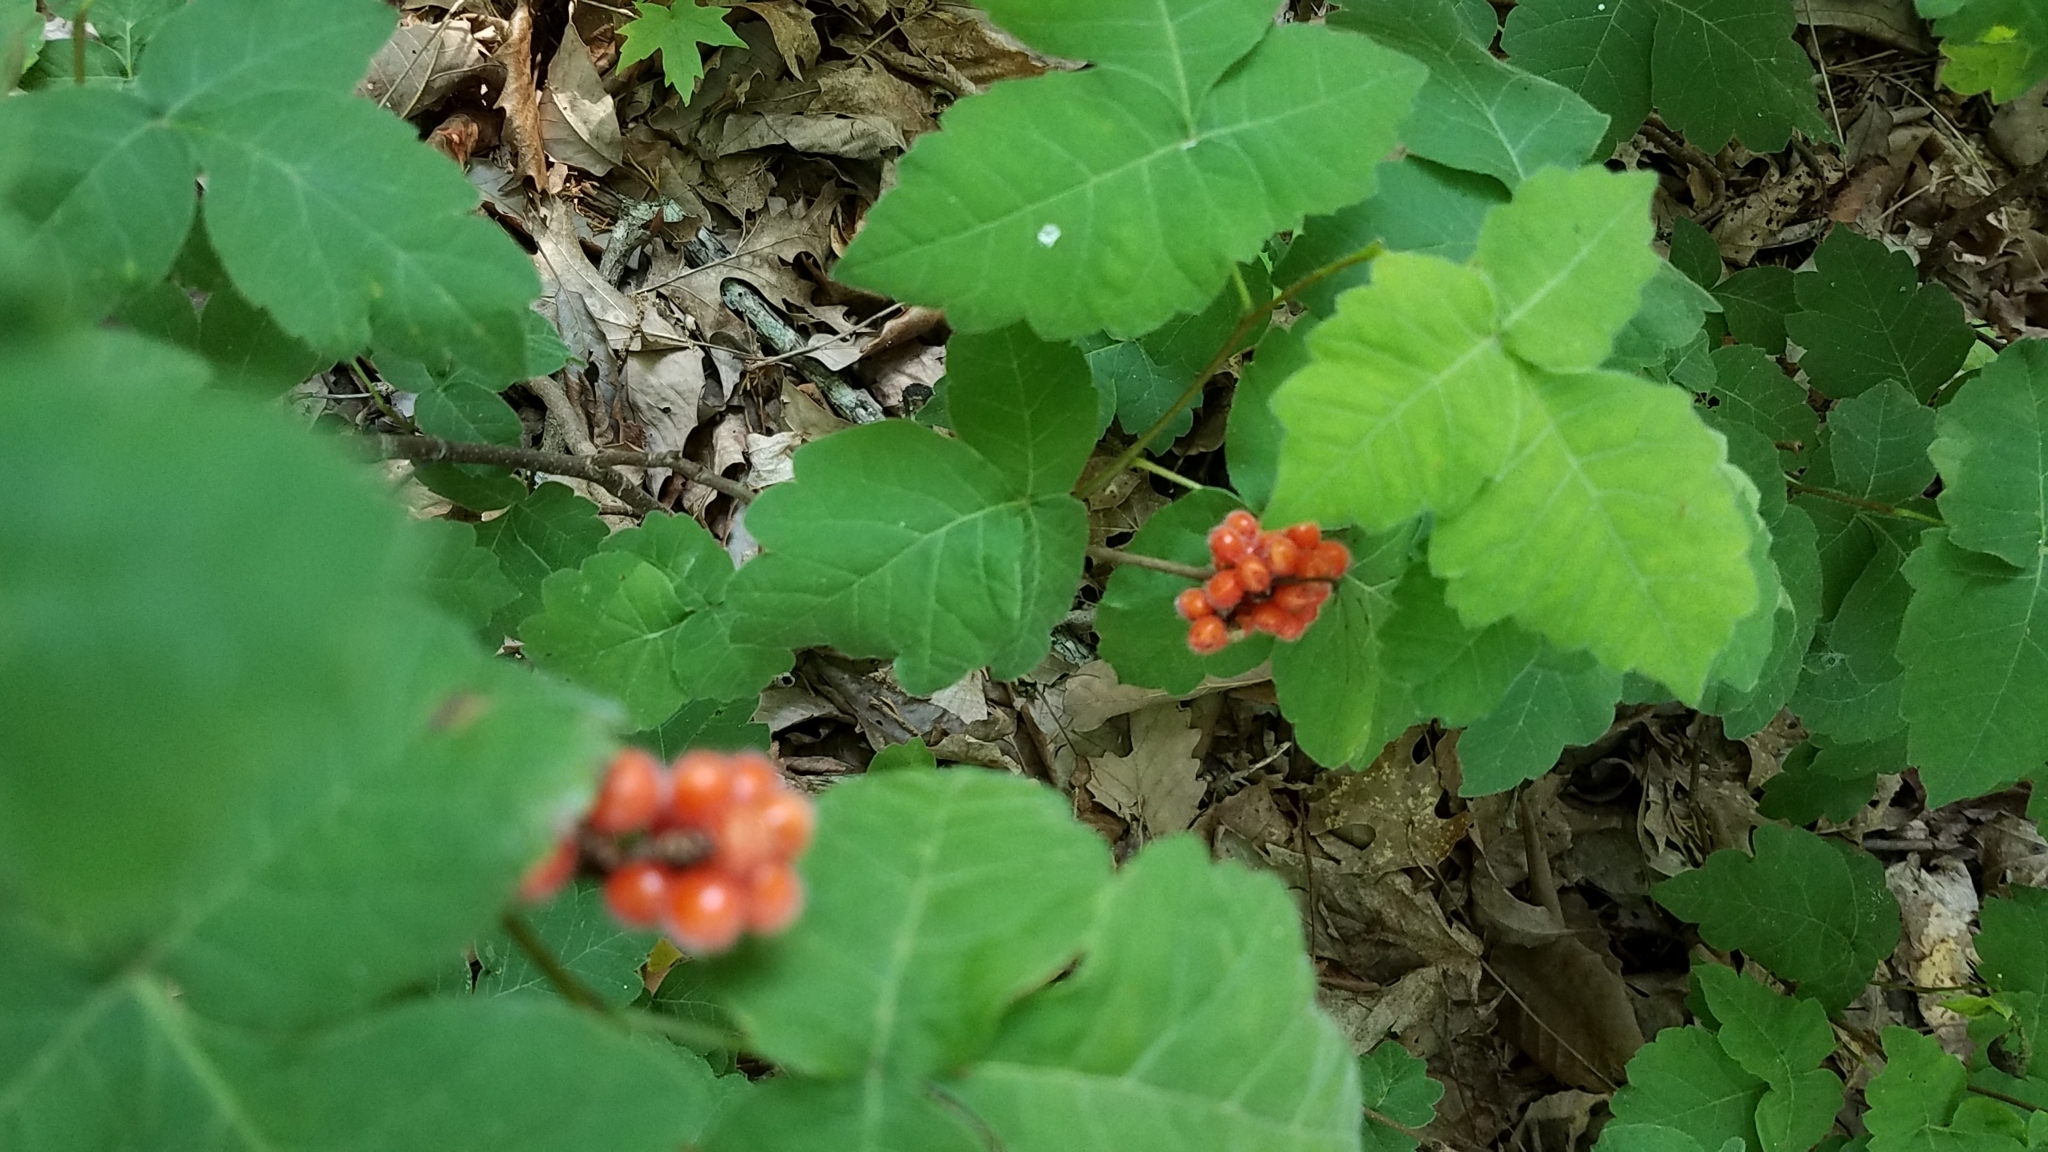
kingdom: Plantae
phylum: Tracheophyta
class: Magnoliopsida
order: Sapindales
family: Anacardiaceae
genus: Rhus
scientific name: Rhus aromatica
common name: Aromatic sumac
